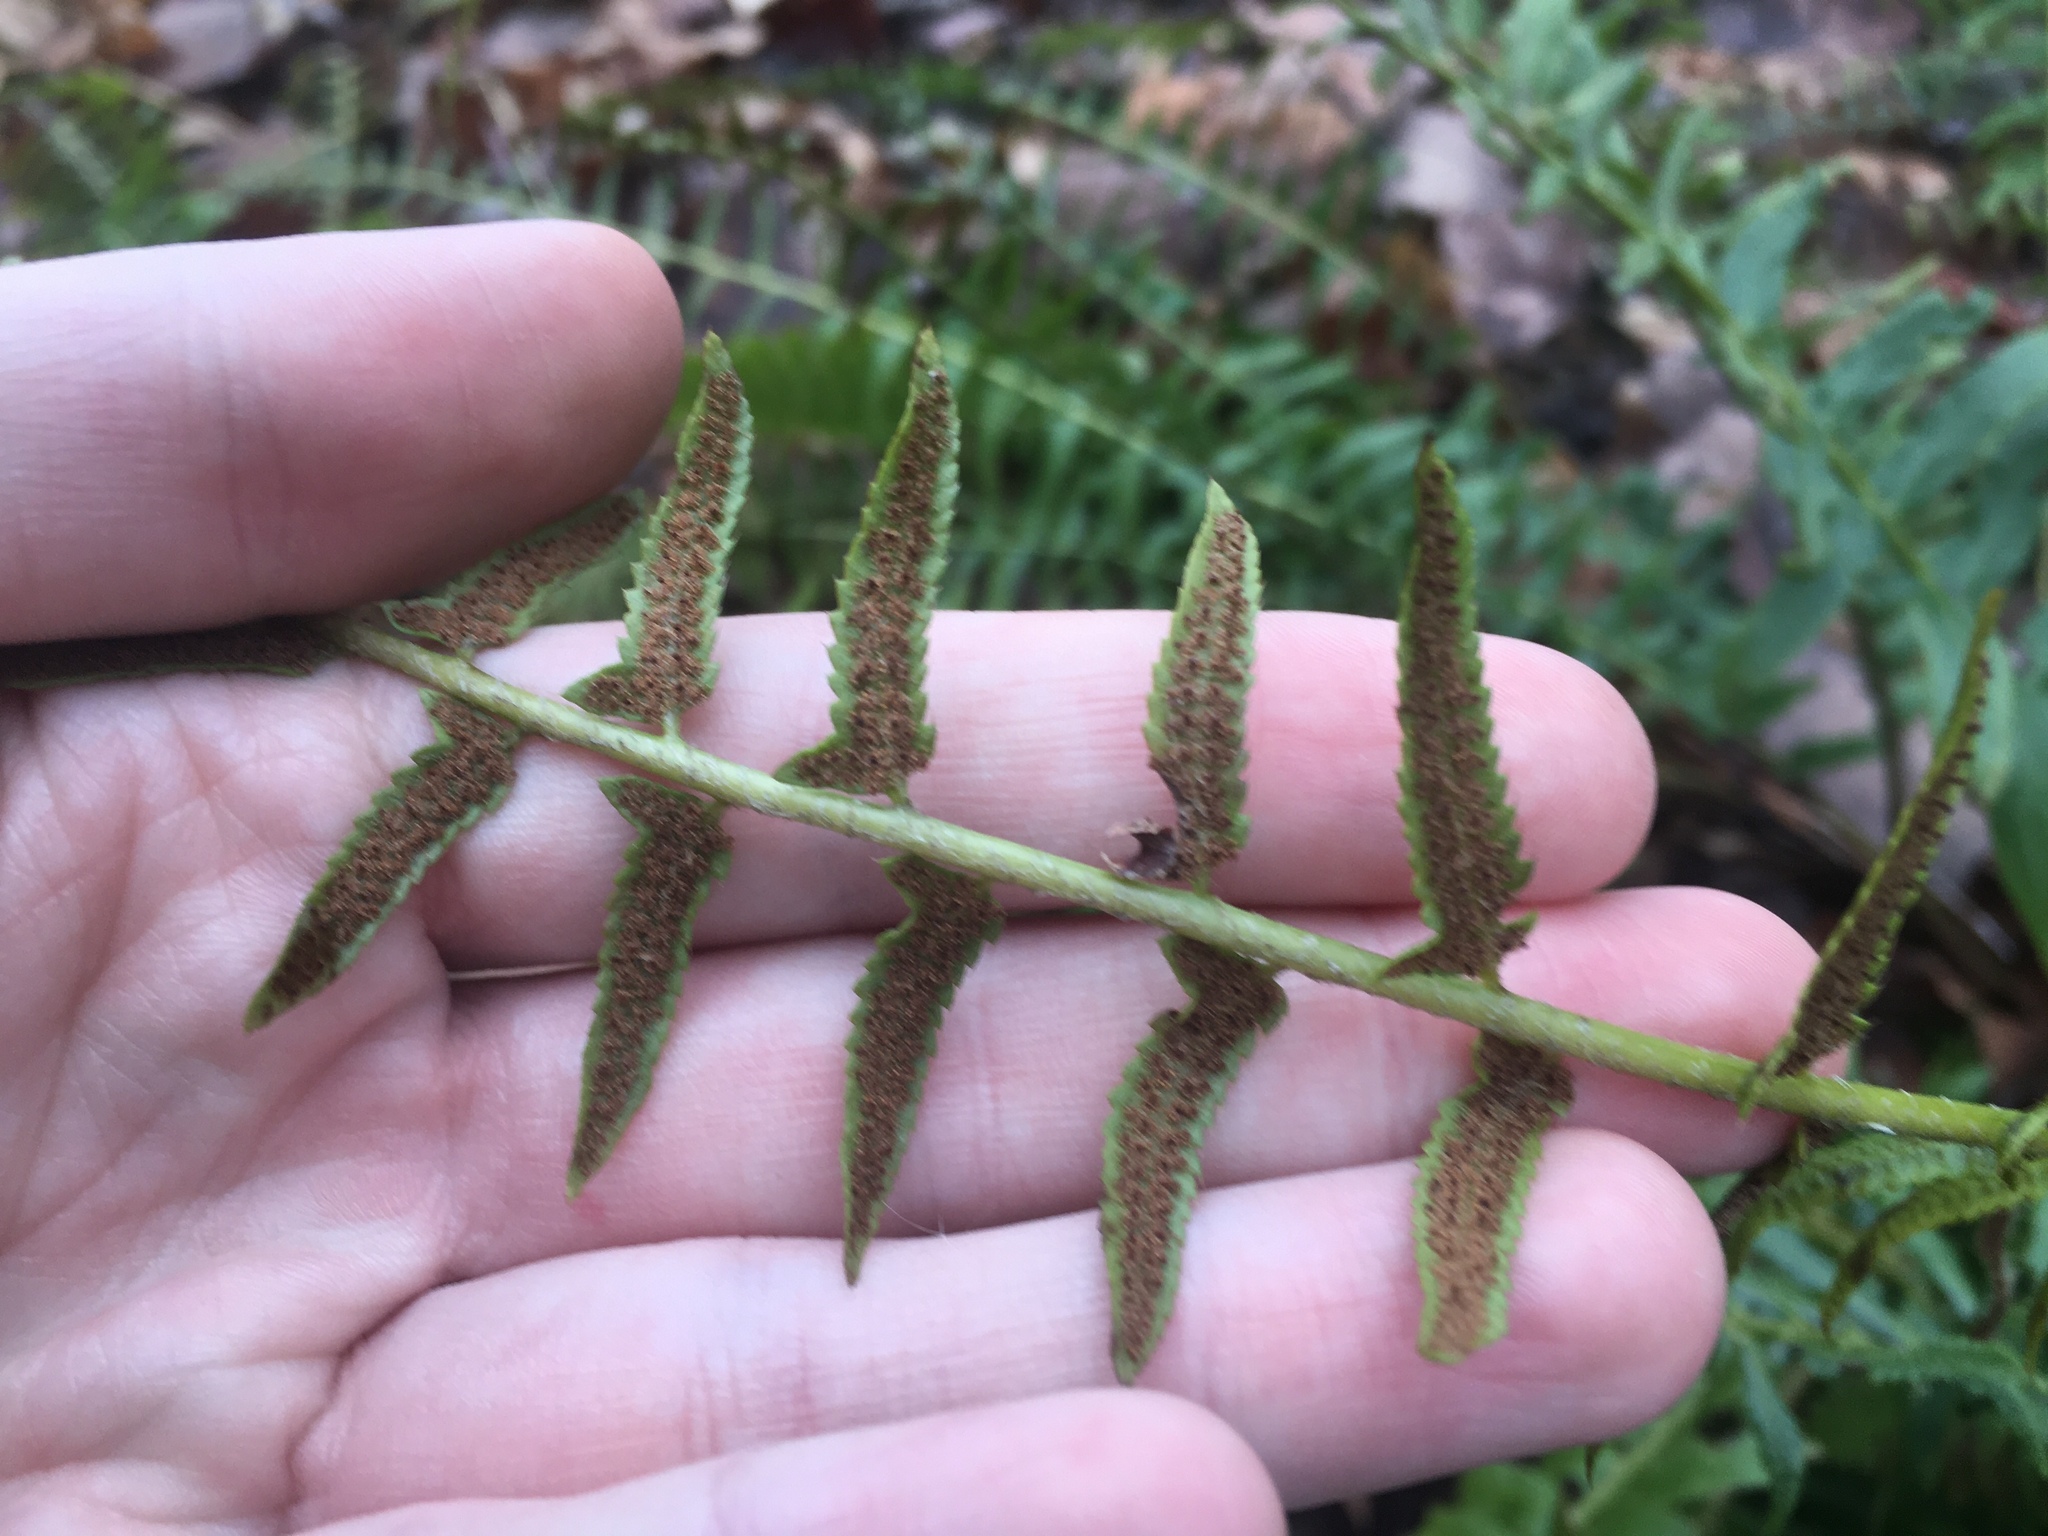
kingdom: Plantae
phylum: Tracheophyta
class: Polypodiopsida
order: Polypodiales
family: Dryopteridaceae
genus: Polystichum
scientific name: Polystichum acrostichoides
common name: Christmas fern
